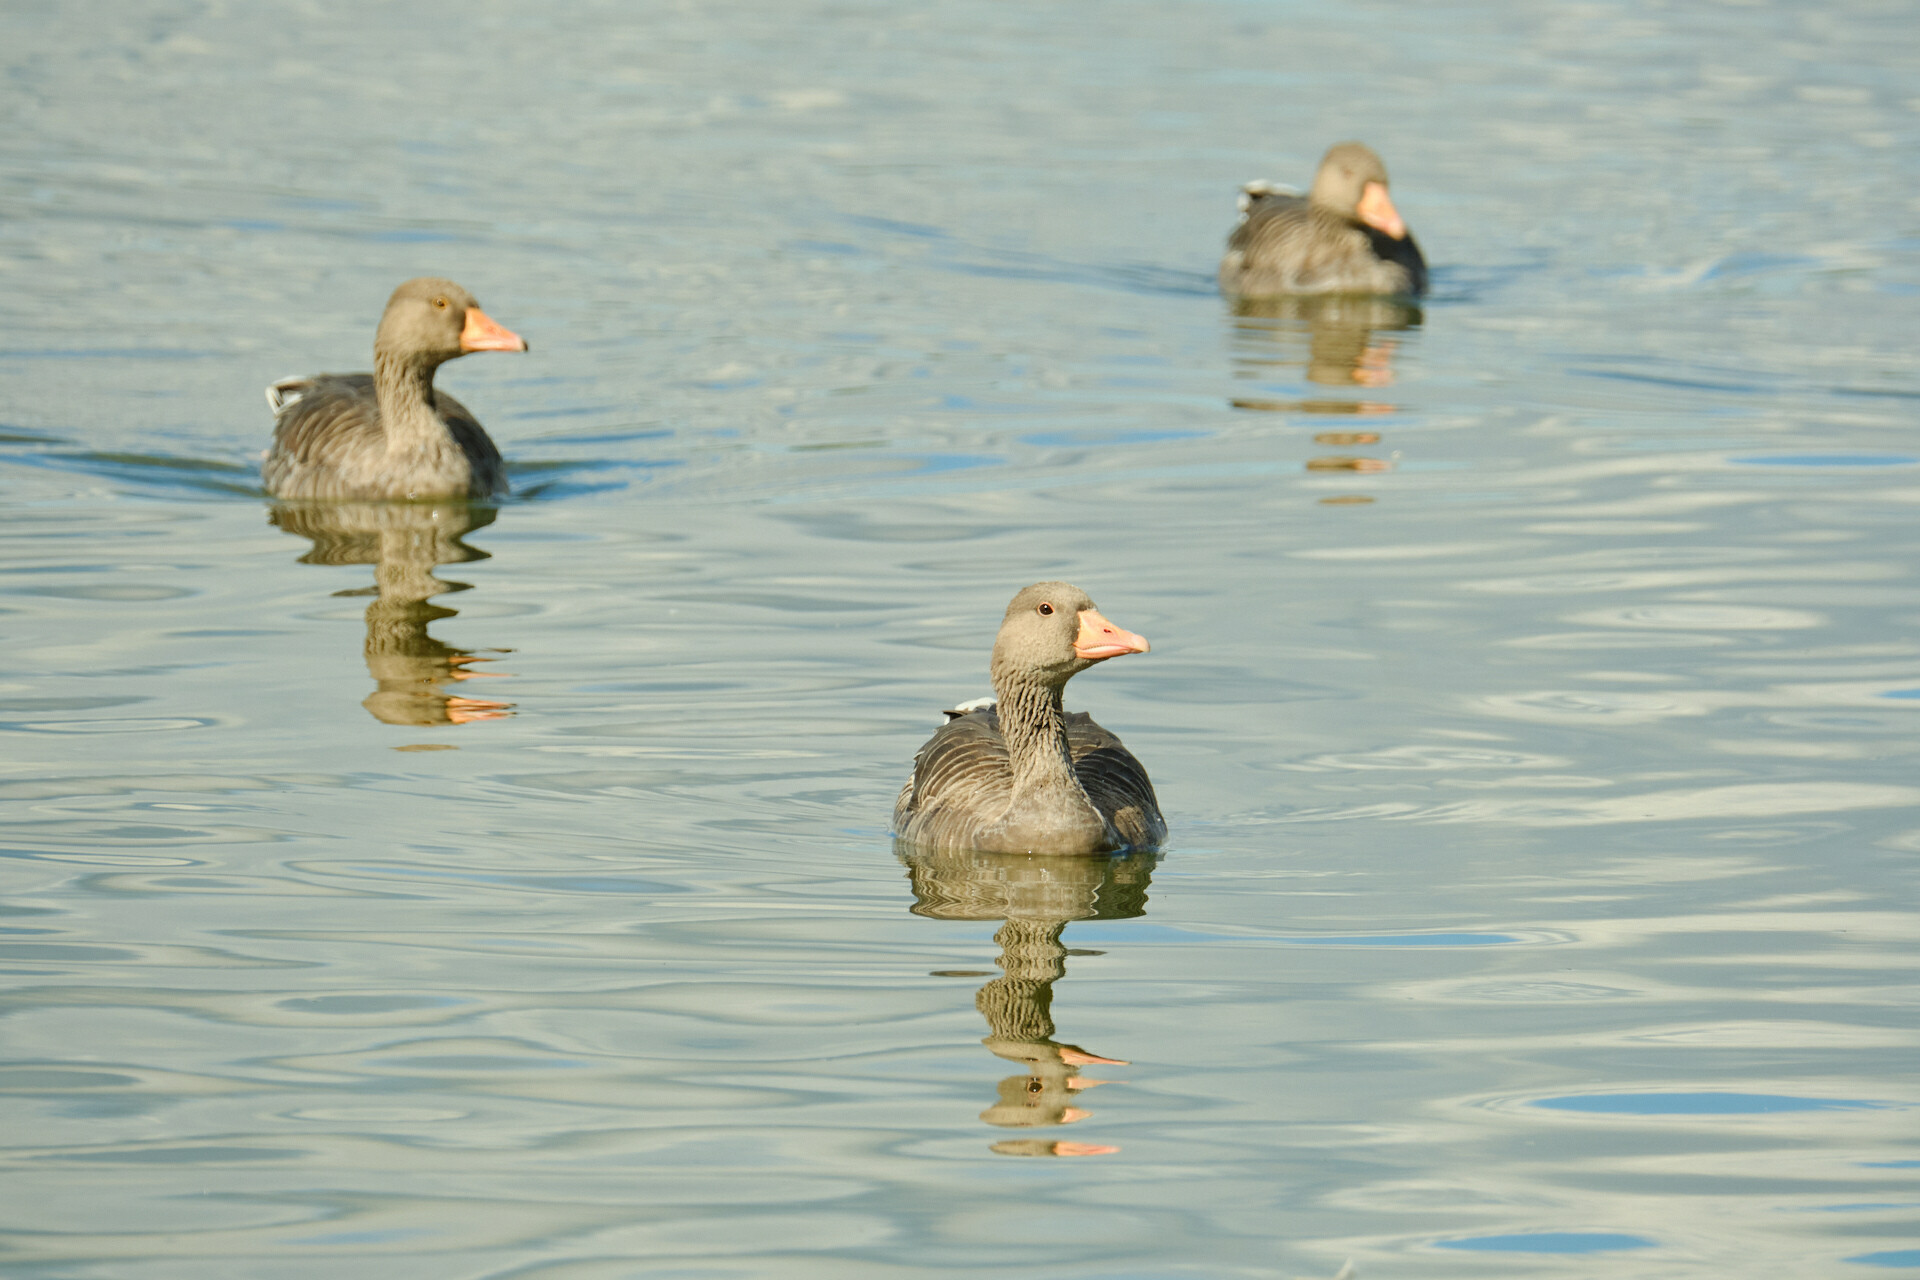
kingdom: Animalia
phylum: Chordata
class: Aves
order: Anseriformes
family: Anatidae
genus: Anser
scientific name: Anser anser
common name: Greylag goose
